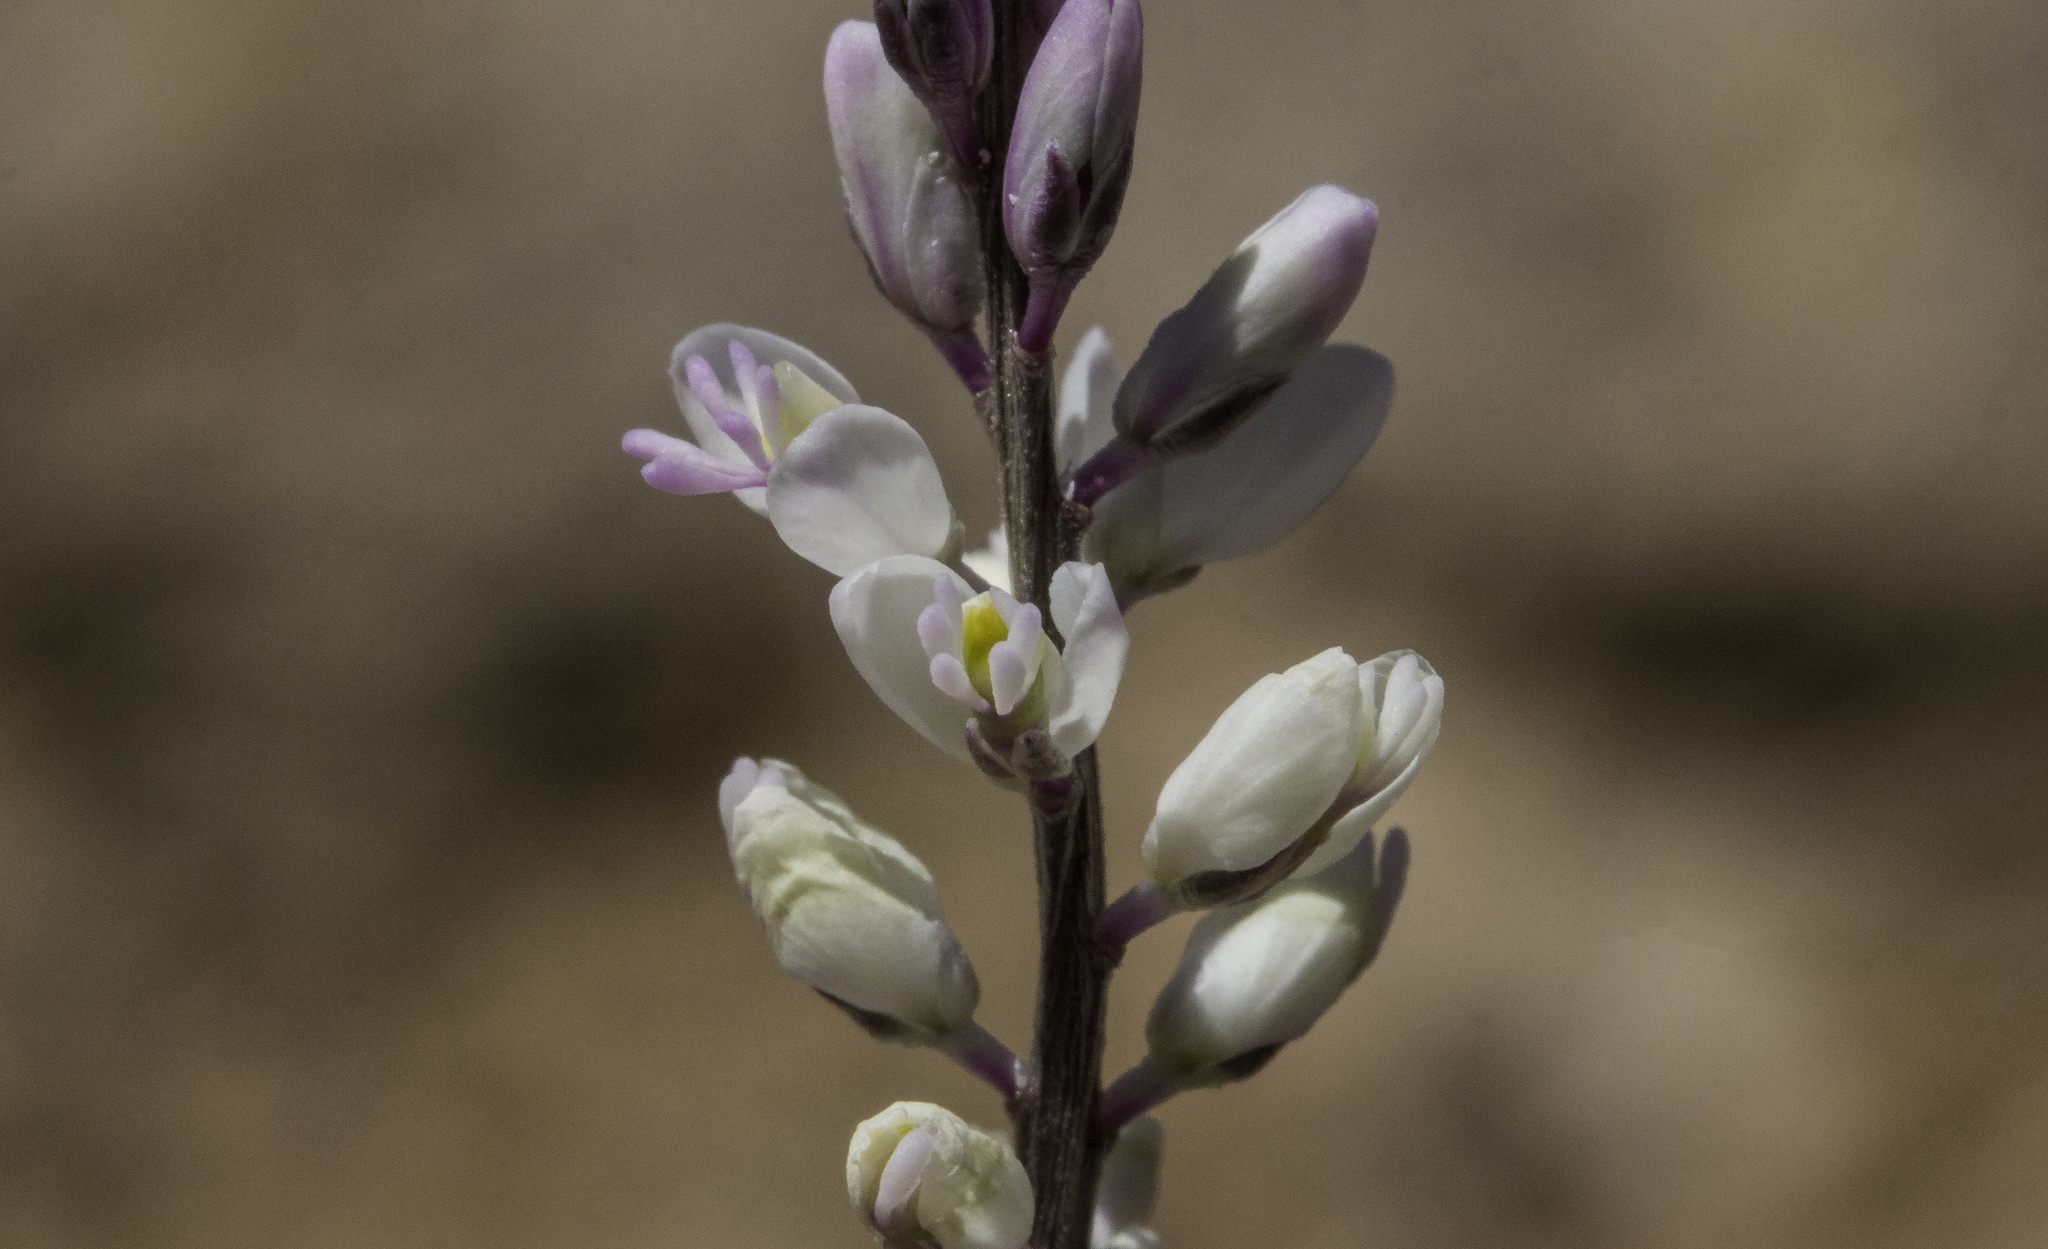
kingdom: Plantae
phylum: Tracheophyta
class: Magnoliopsida
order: Fabales
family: Polygalaceae
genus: Polygala
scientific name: Polygala alba
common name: White milkwort
